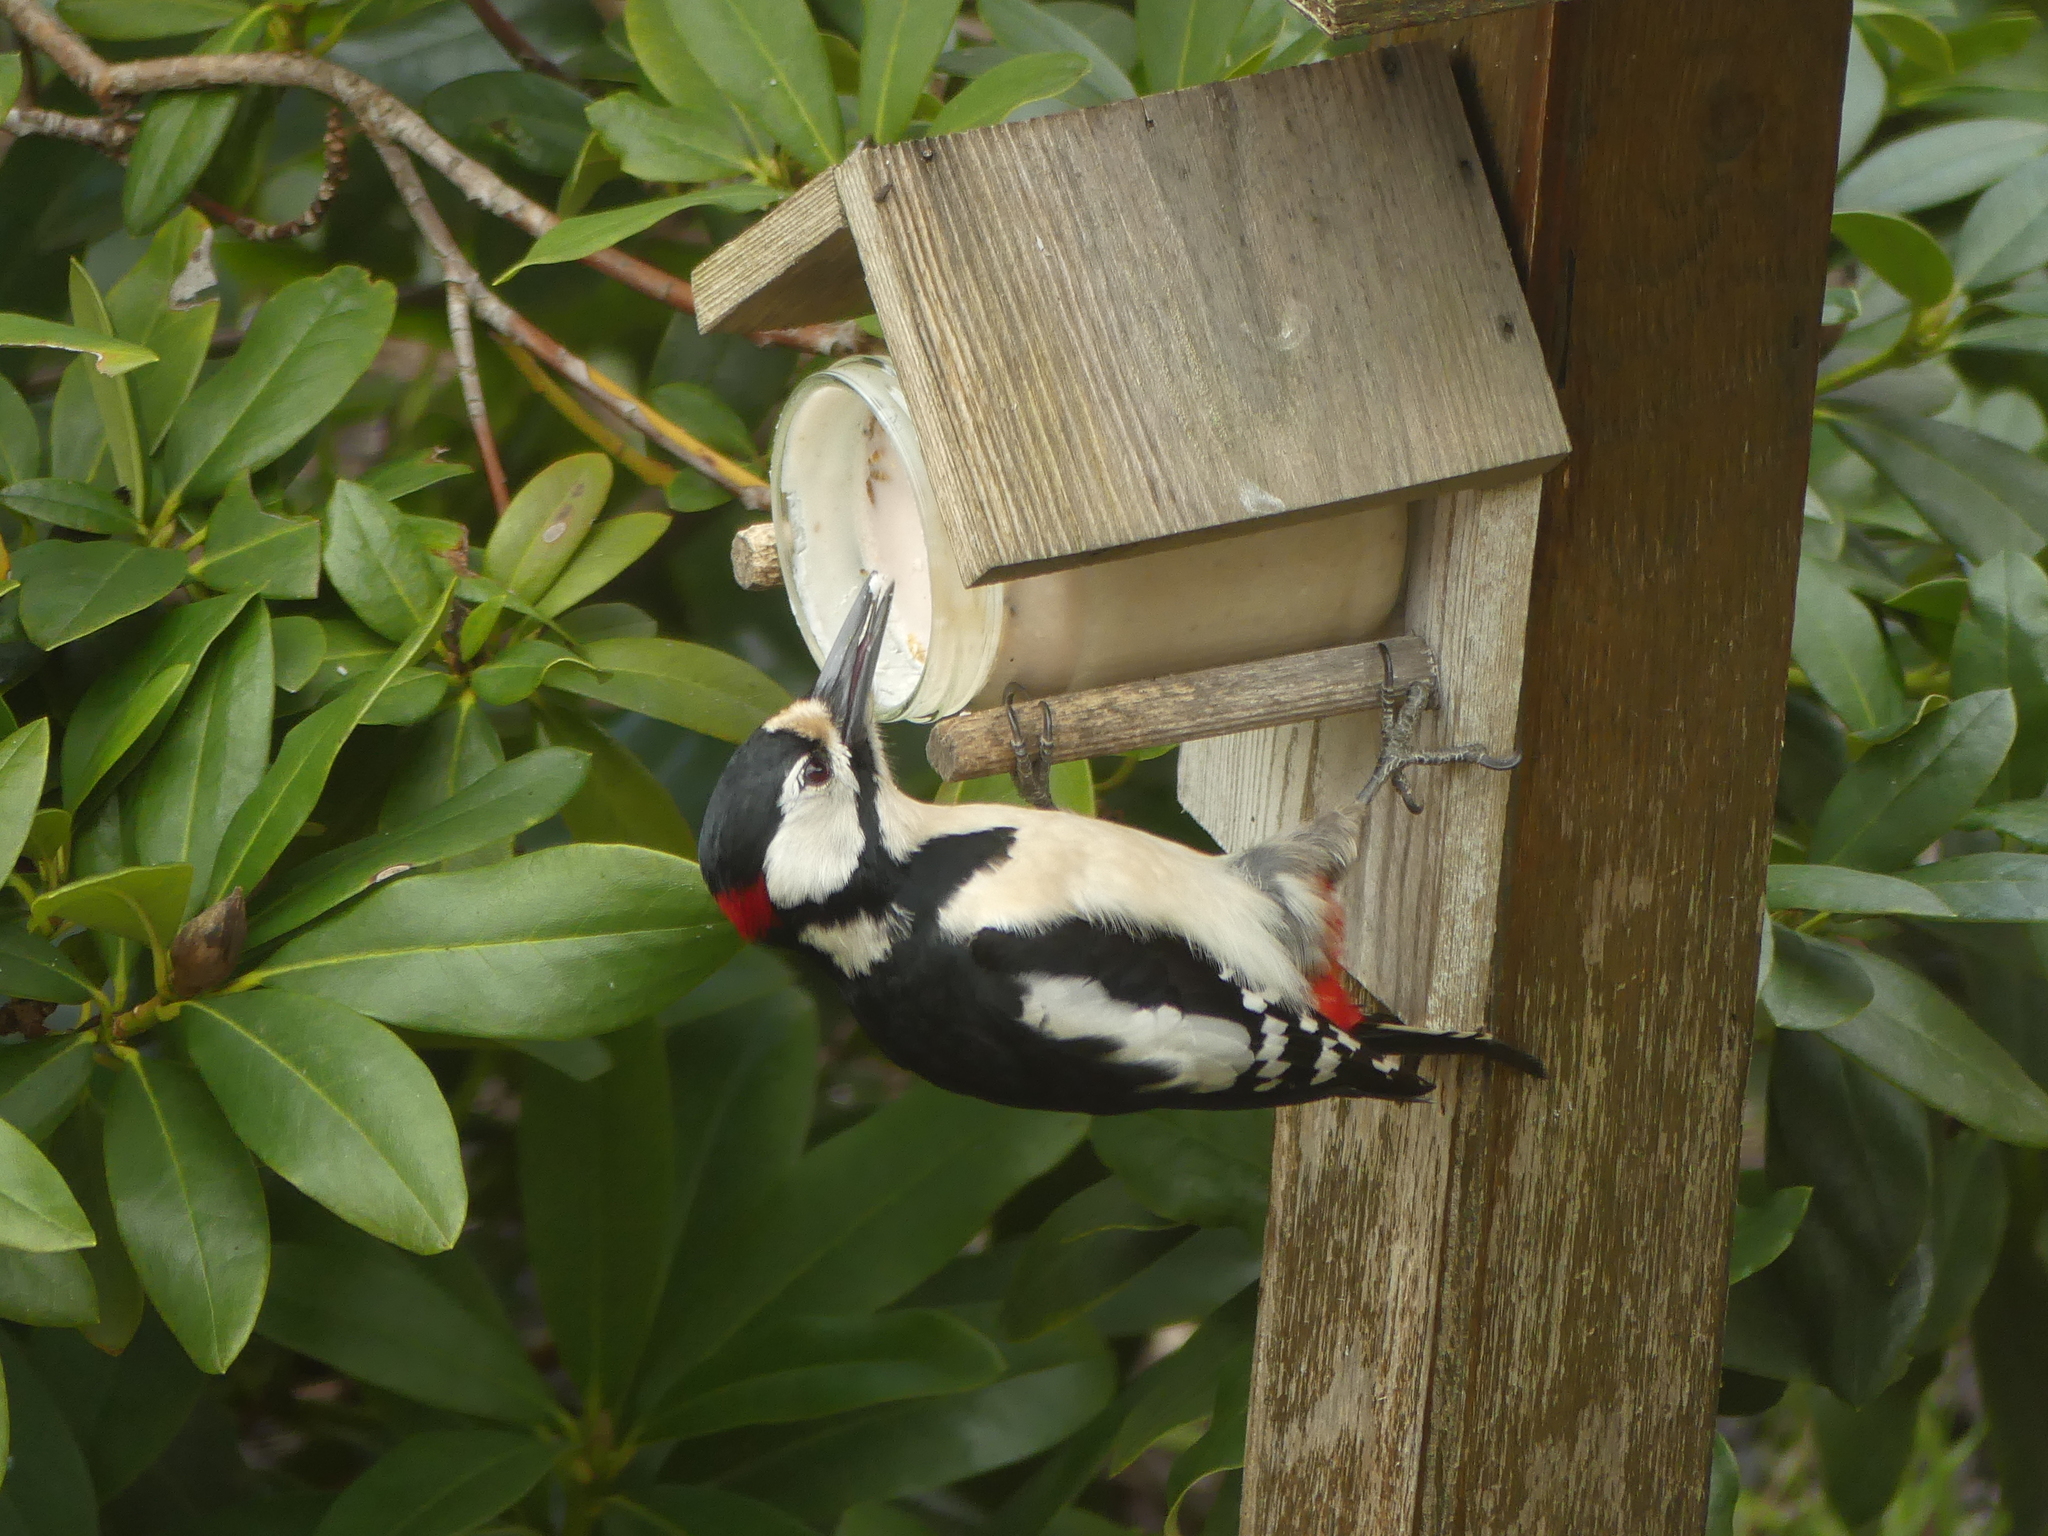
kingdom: Animalia
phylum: Chordata
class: Aves
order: Piciformes
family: Picidae
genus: Dendrocopos
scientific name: Dendrocopos major
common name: Great spotted woodpecker
